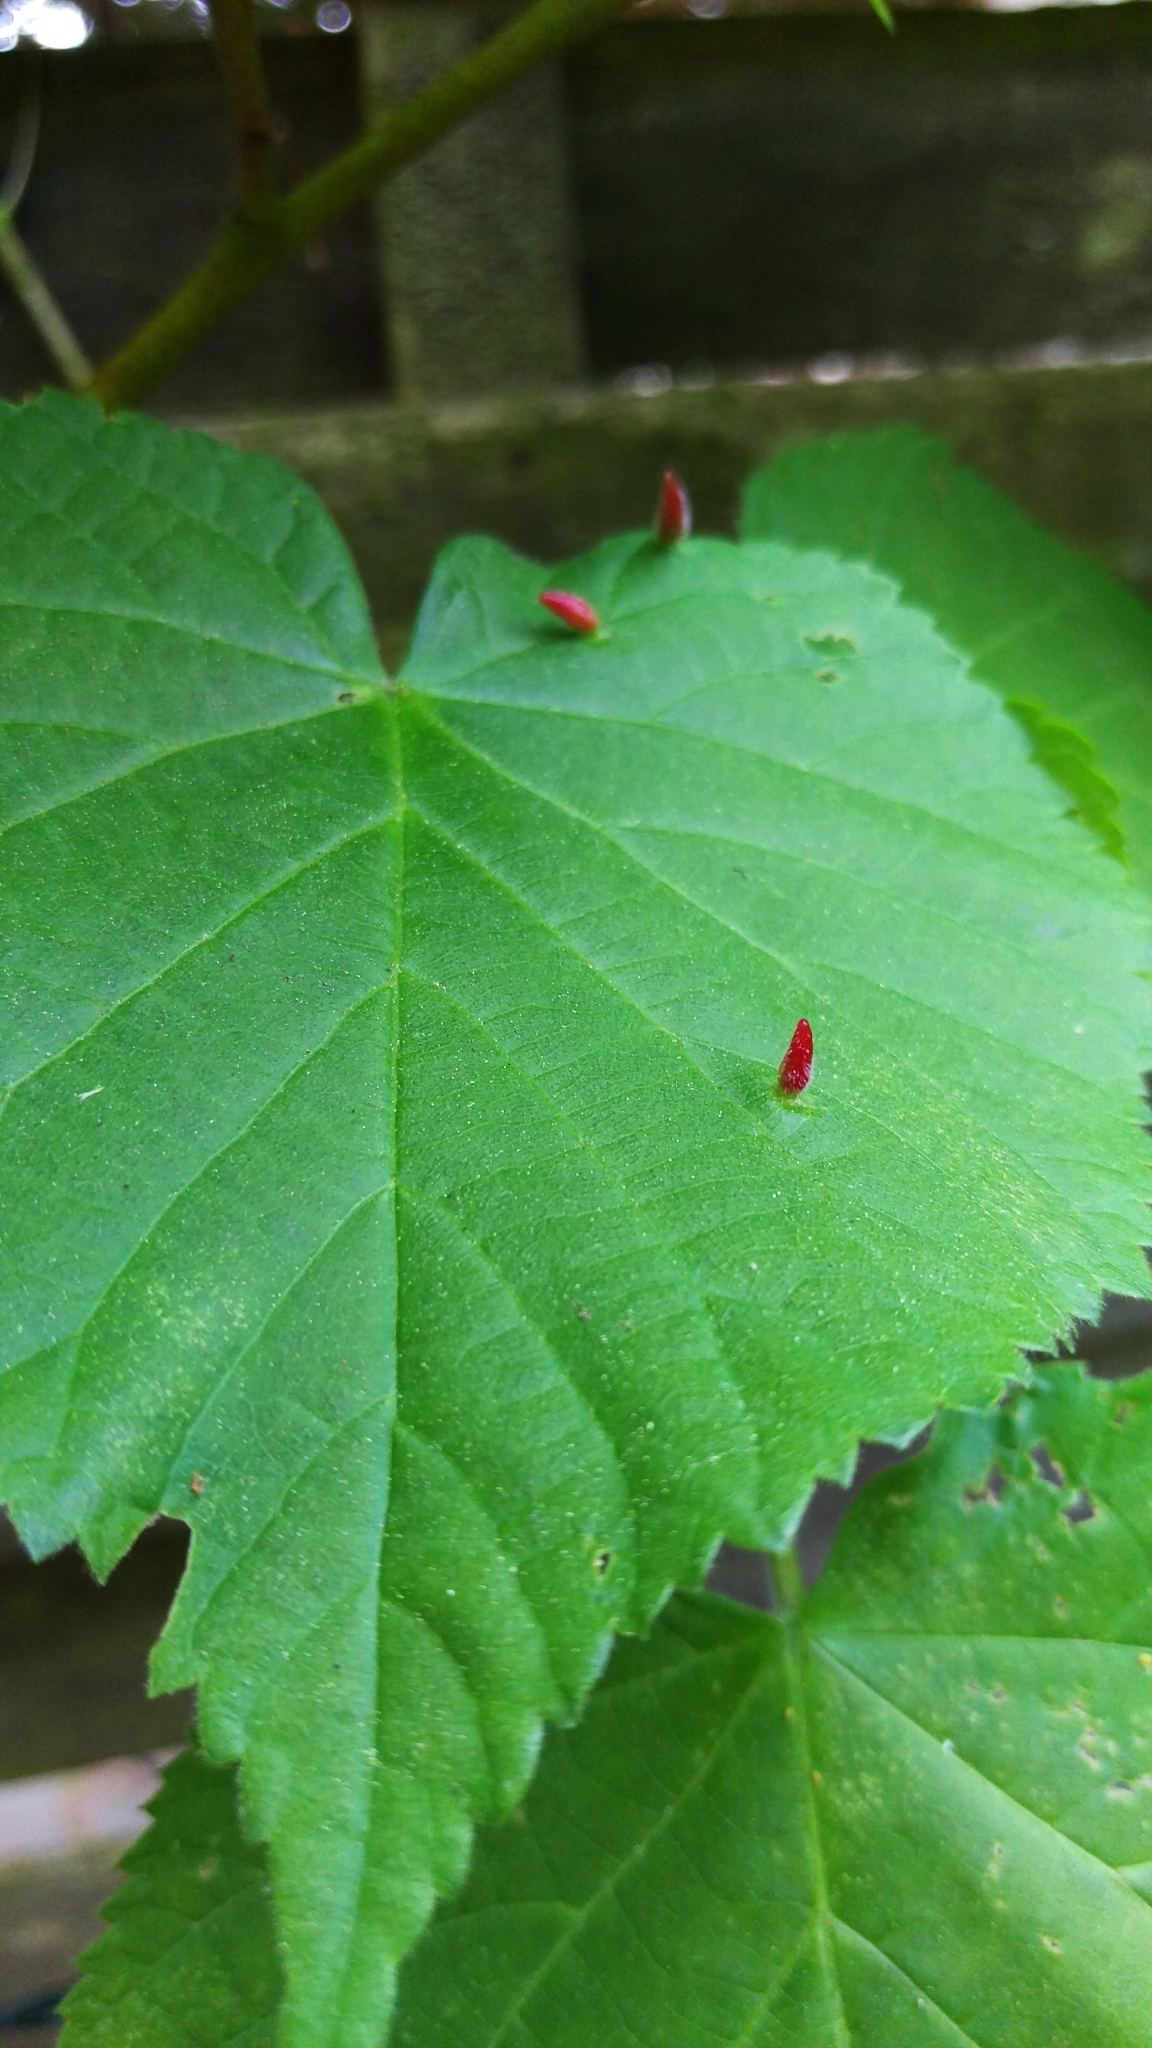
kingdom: Animalia
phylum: Arthropoda
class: Arachnida
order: Trombidiformes
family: Eriophyidae
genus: Eriophyes
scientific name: Eriophyes tiliae
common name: Red nail gall mite
